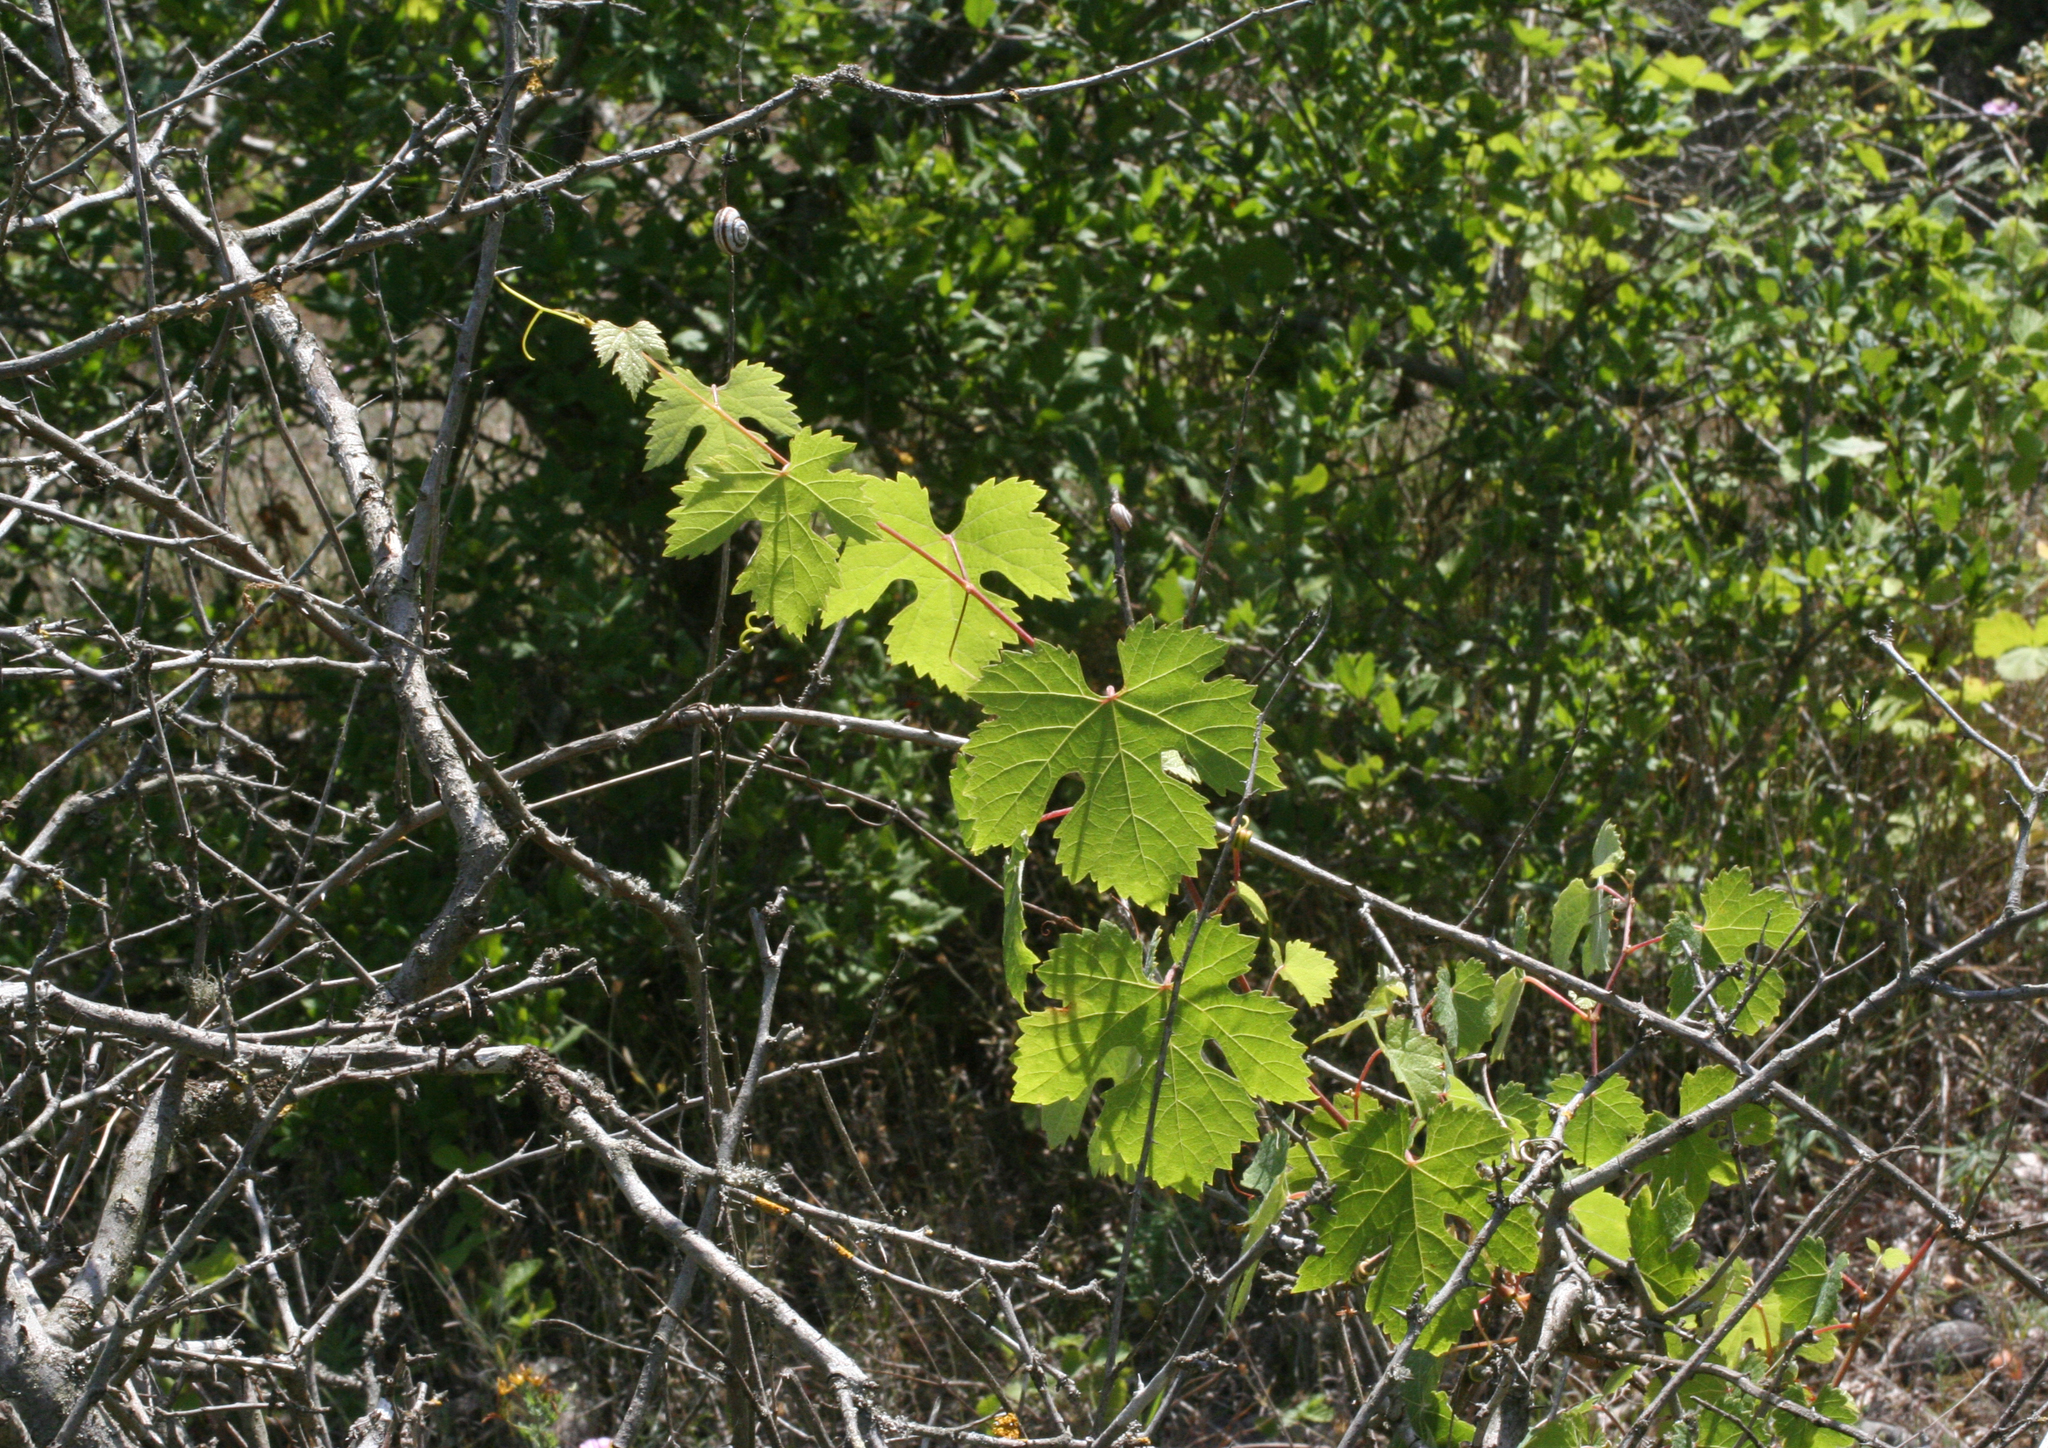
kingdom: Plantae
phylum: Tracheophyta
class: Magnoliopsida
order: Vitales
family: Vitaceae
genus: Vitis
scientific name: Vitis gmelinii
